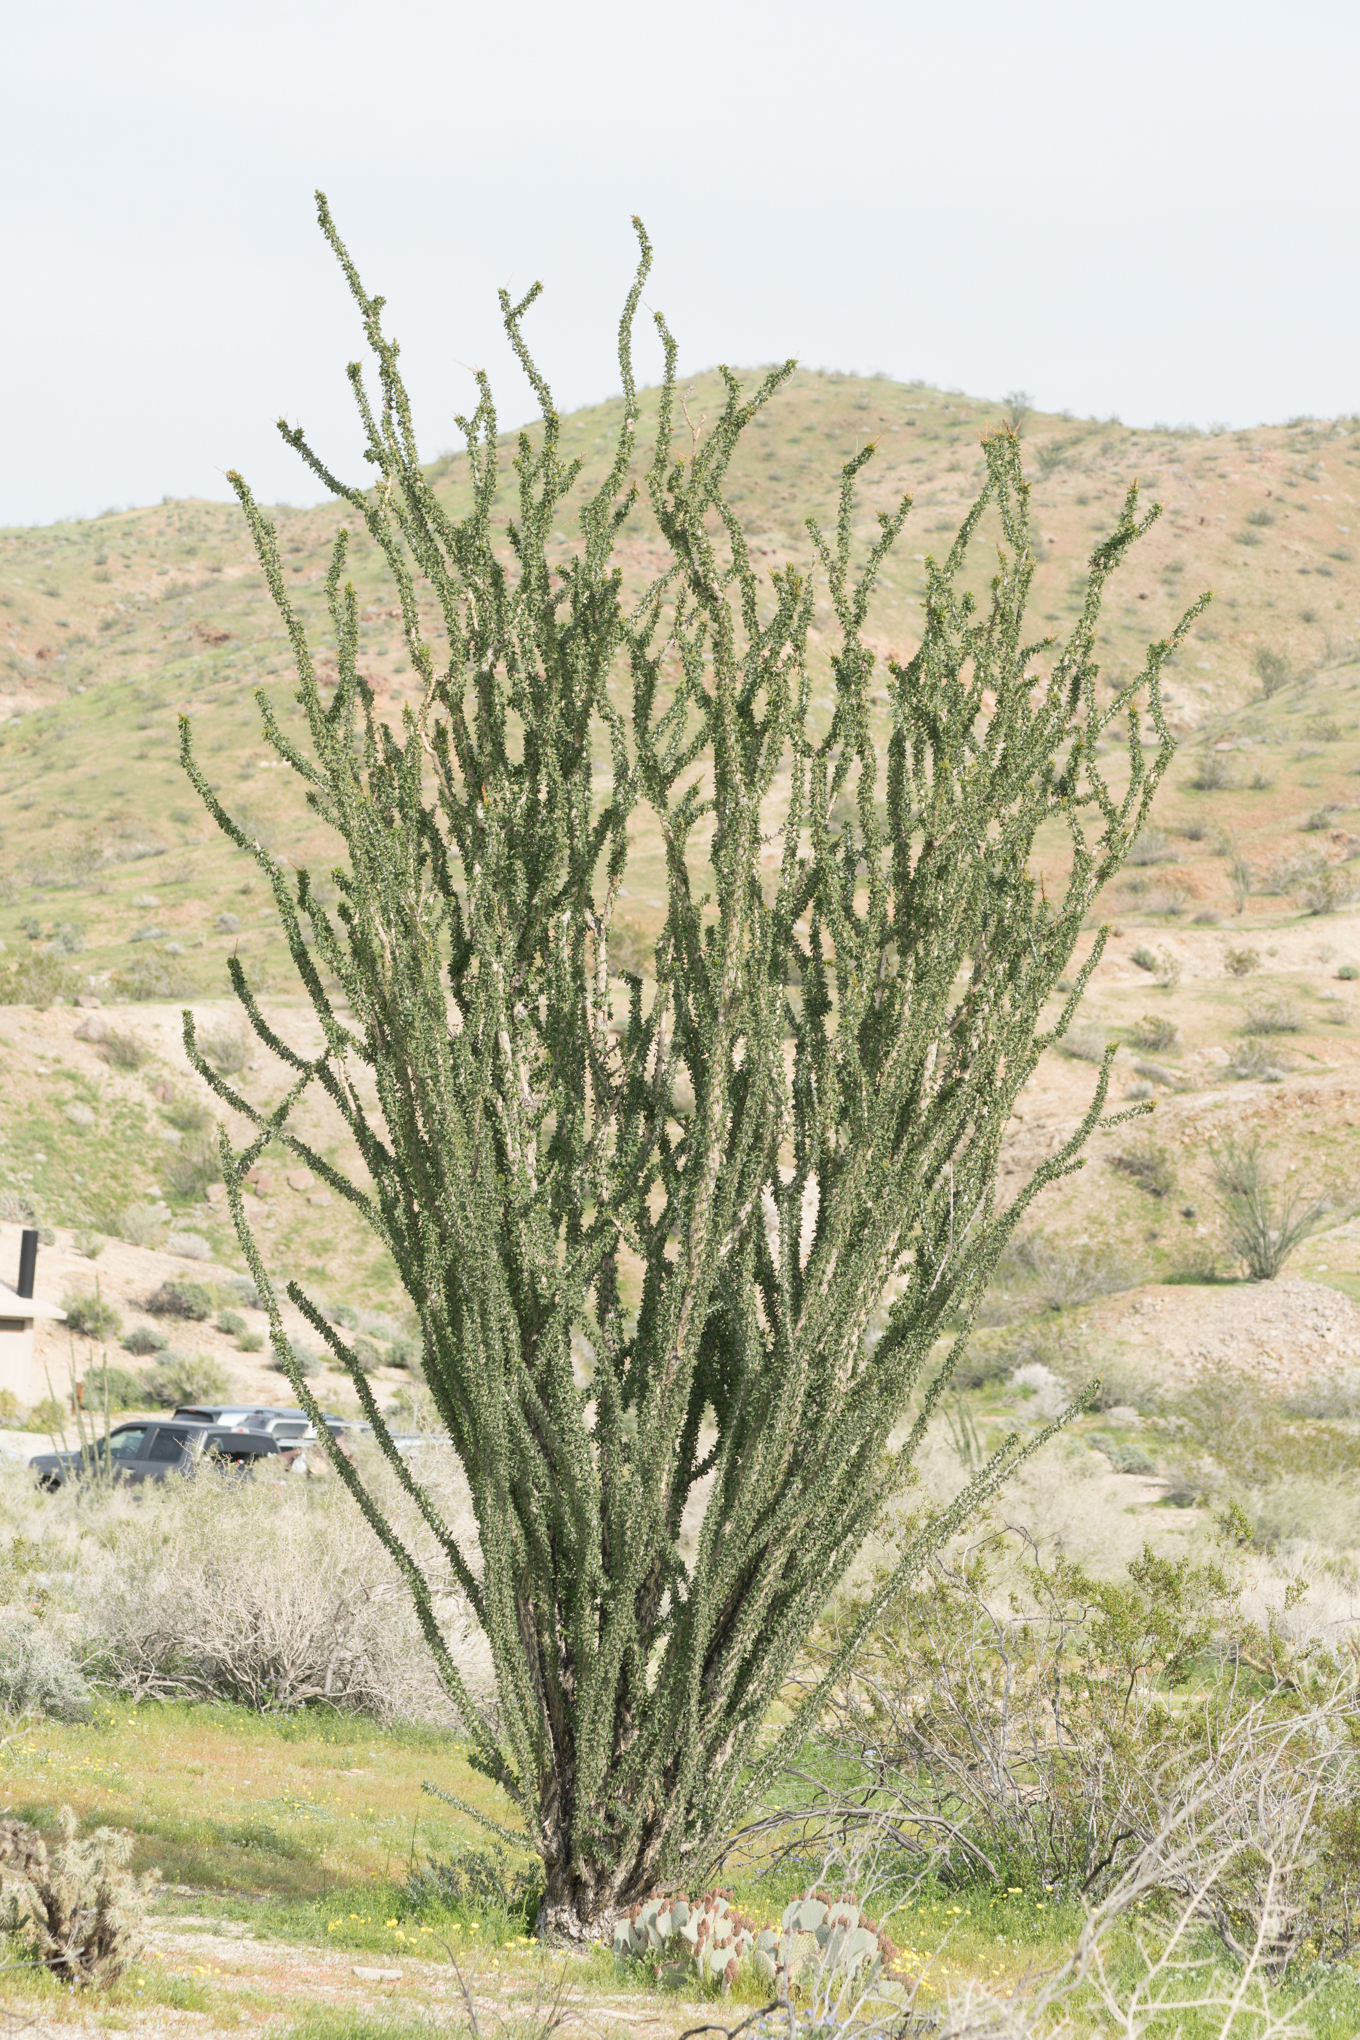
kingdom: Plantae
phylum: Tracheophyta
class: Magnoliopsida
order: Ericales
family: Fouquieriaceae
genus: Fouquieria
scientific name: Fouquieria splendens
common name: Vine-cactus
